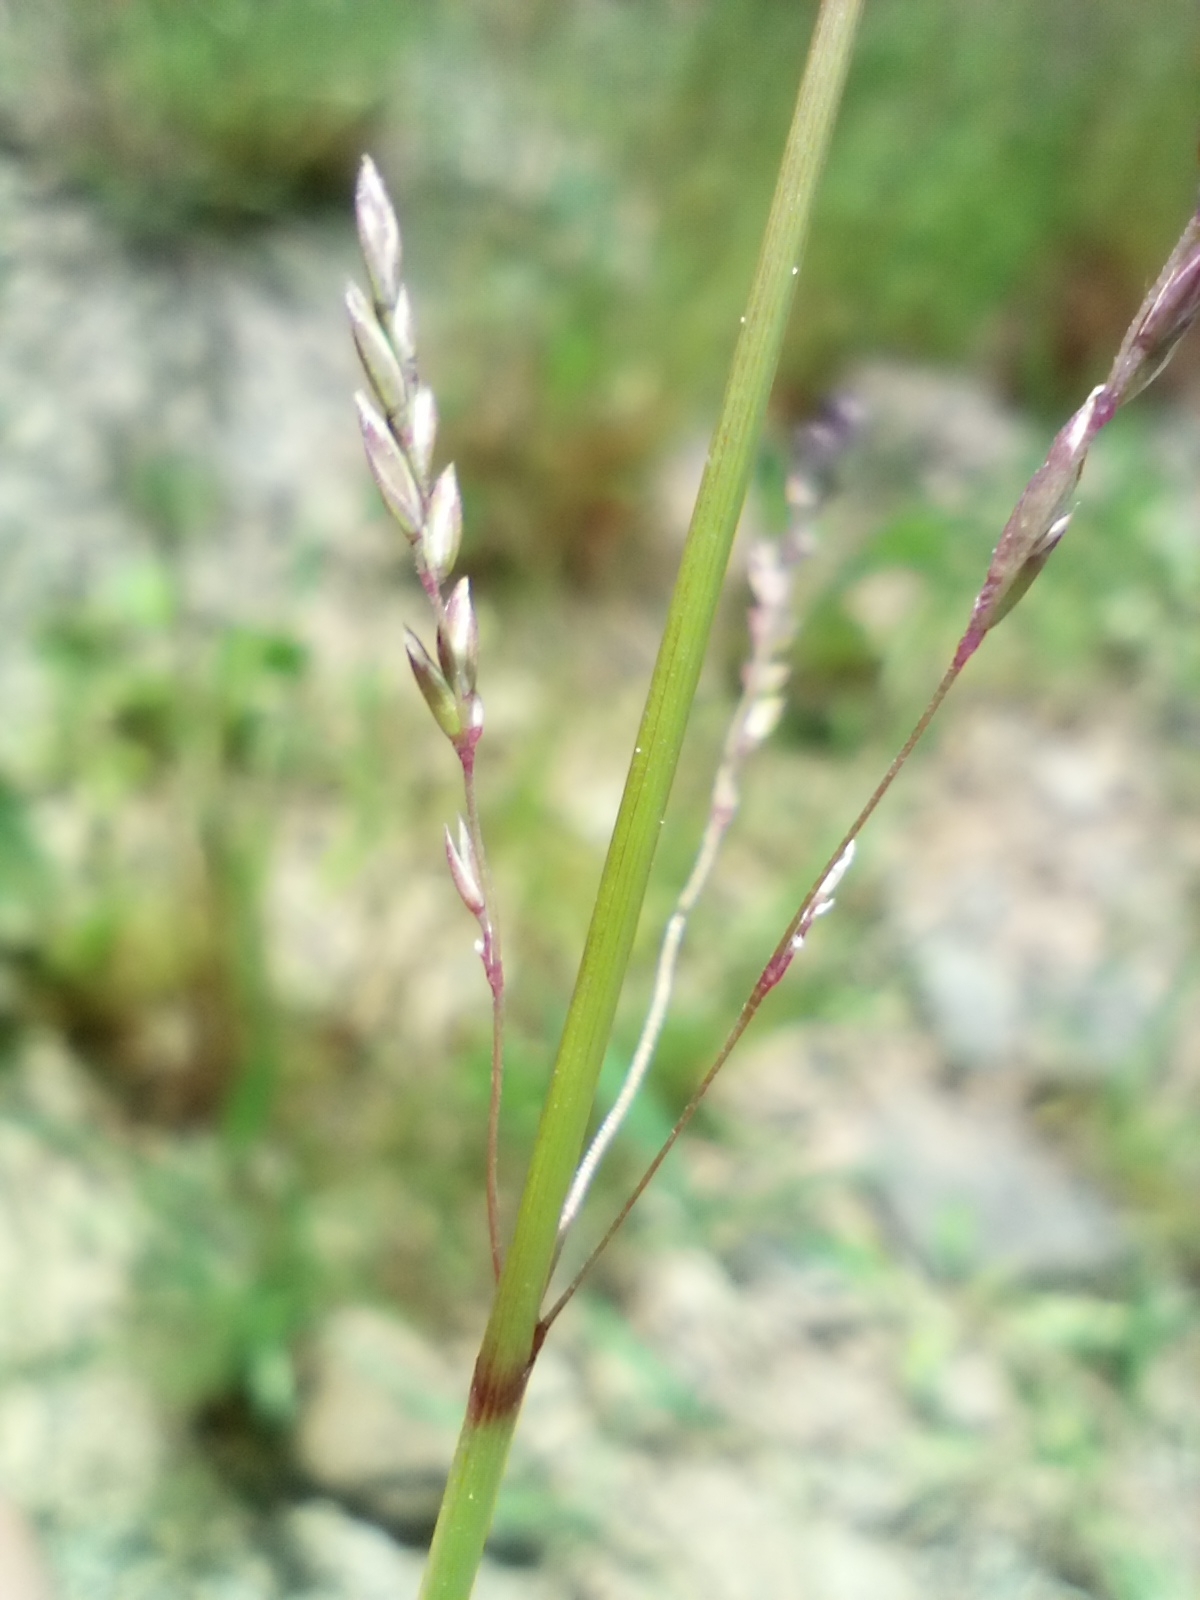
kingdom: Plantae
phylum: Tracheophyta
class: Liliopsida
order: Poales
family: Poaceae
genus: Poa
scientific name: Poa trivialis
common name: Rough bluegrass
